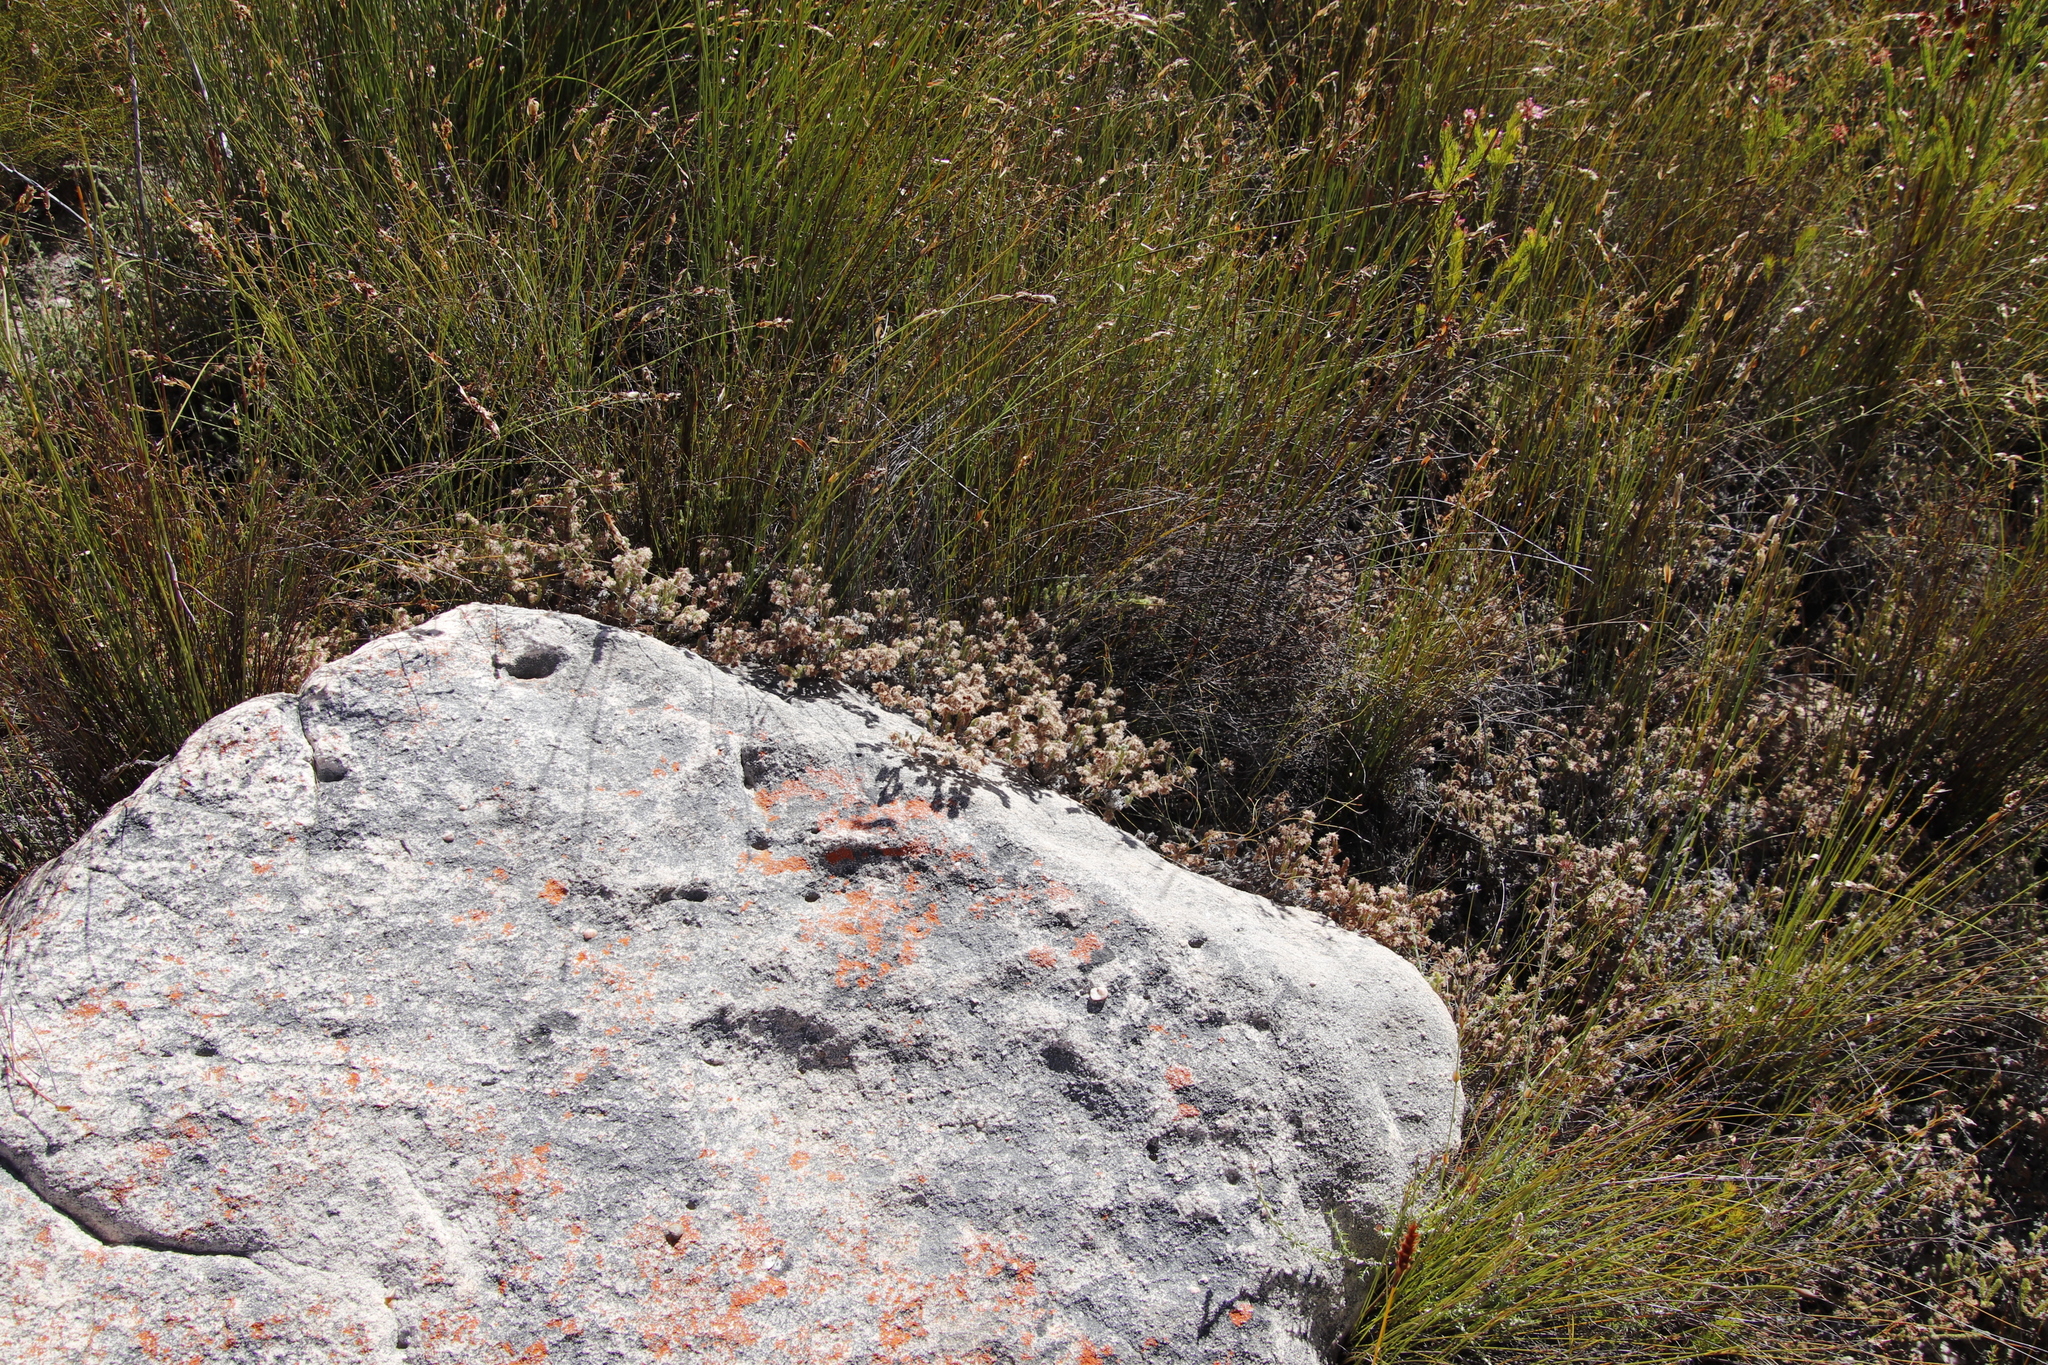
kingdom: Plantae
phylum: Tracheophyta
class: Magnoliopsida
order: Ericales
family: Ericaceae
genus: Erica
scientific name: Erica totta
